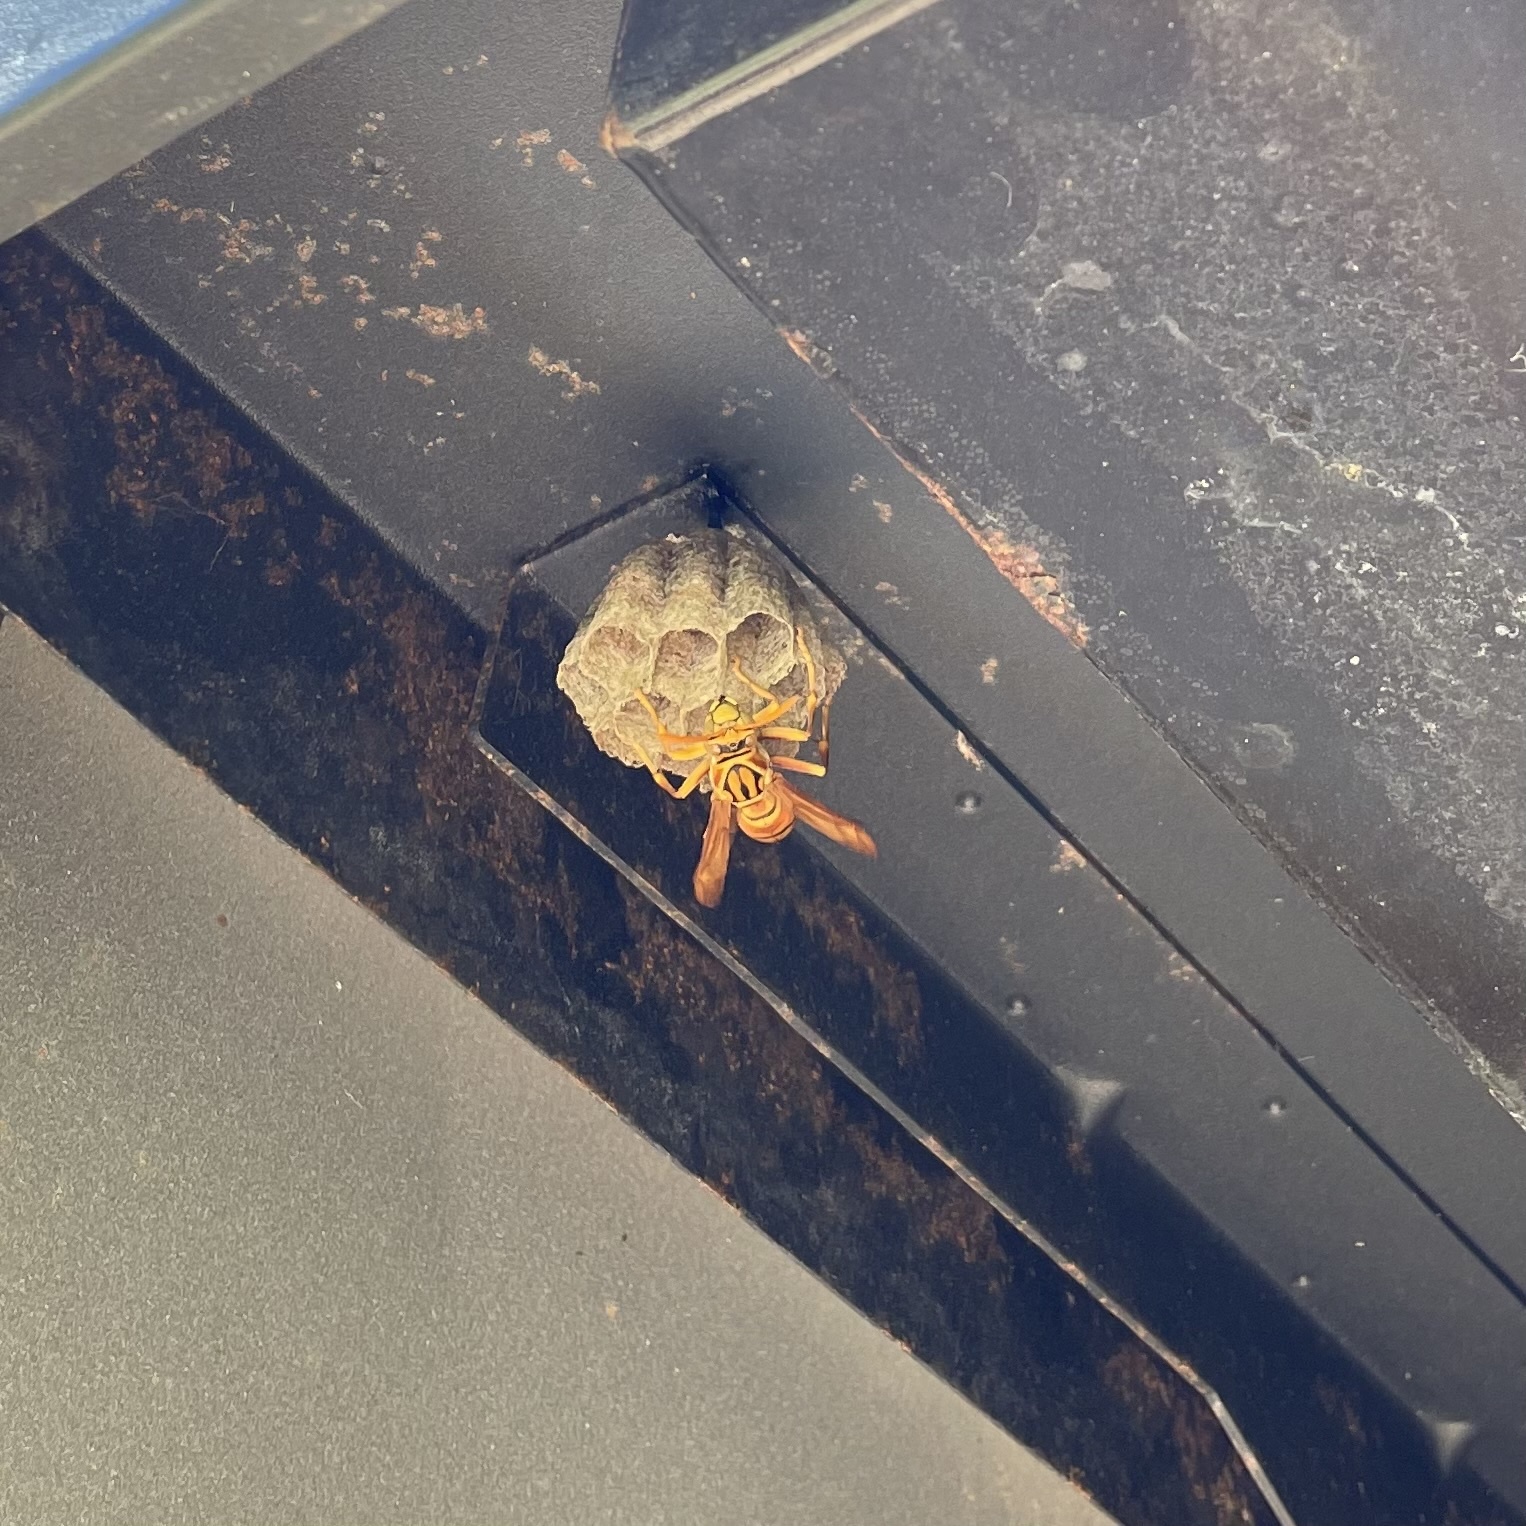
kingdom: Animalia
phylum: Arthropoda
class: Insecta
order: Hymenoptera
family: Eumenidae
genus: Polistes
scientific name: Polistes olivaceus
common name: Paper wasp
